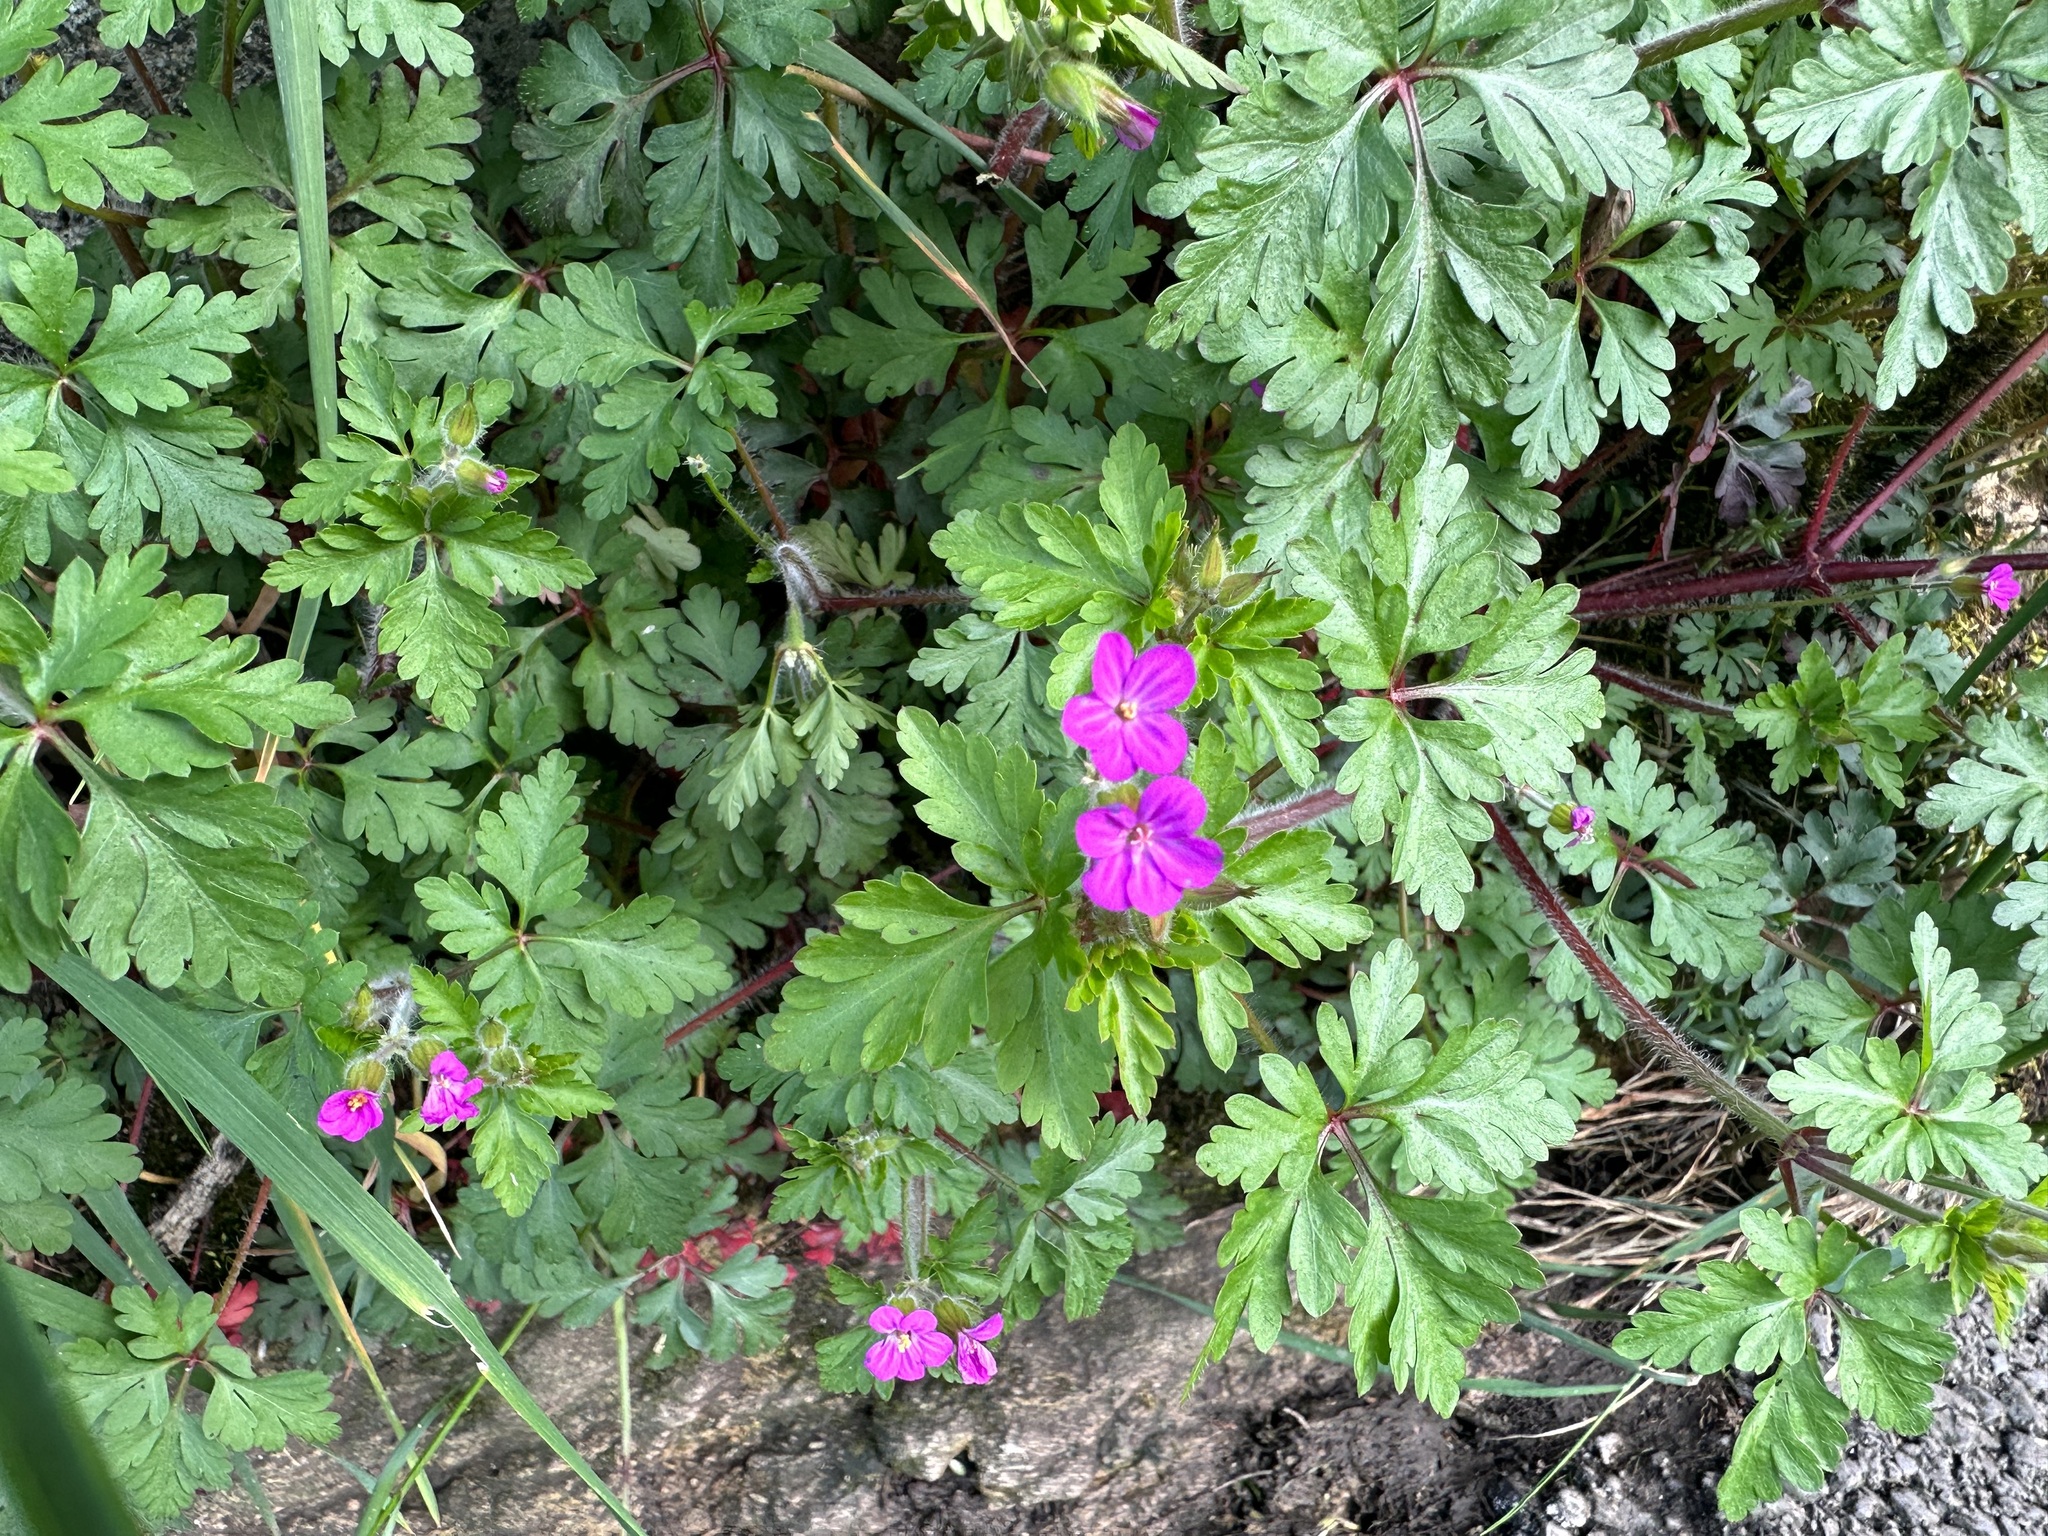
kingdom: Plantae
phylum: Tracheophyta
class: Magnoliopsida
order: Geraniales
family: Geraniaceae
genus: Geranium
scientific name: Geranium robertianum
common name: Herb-robert
